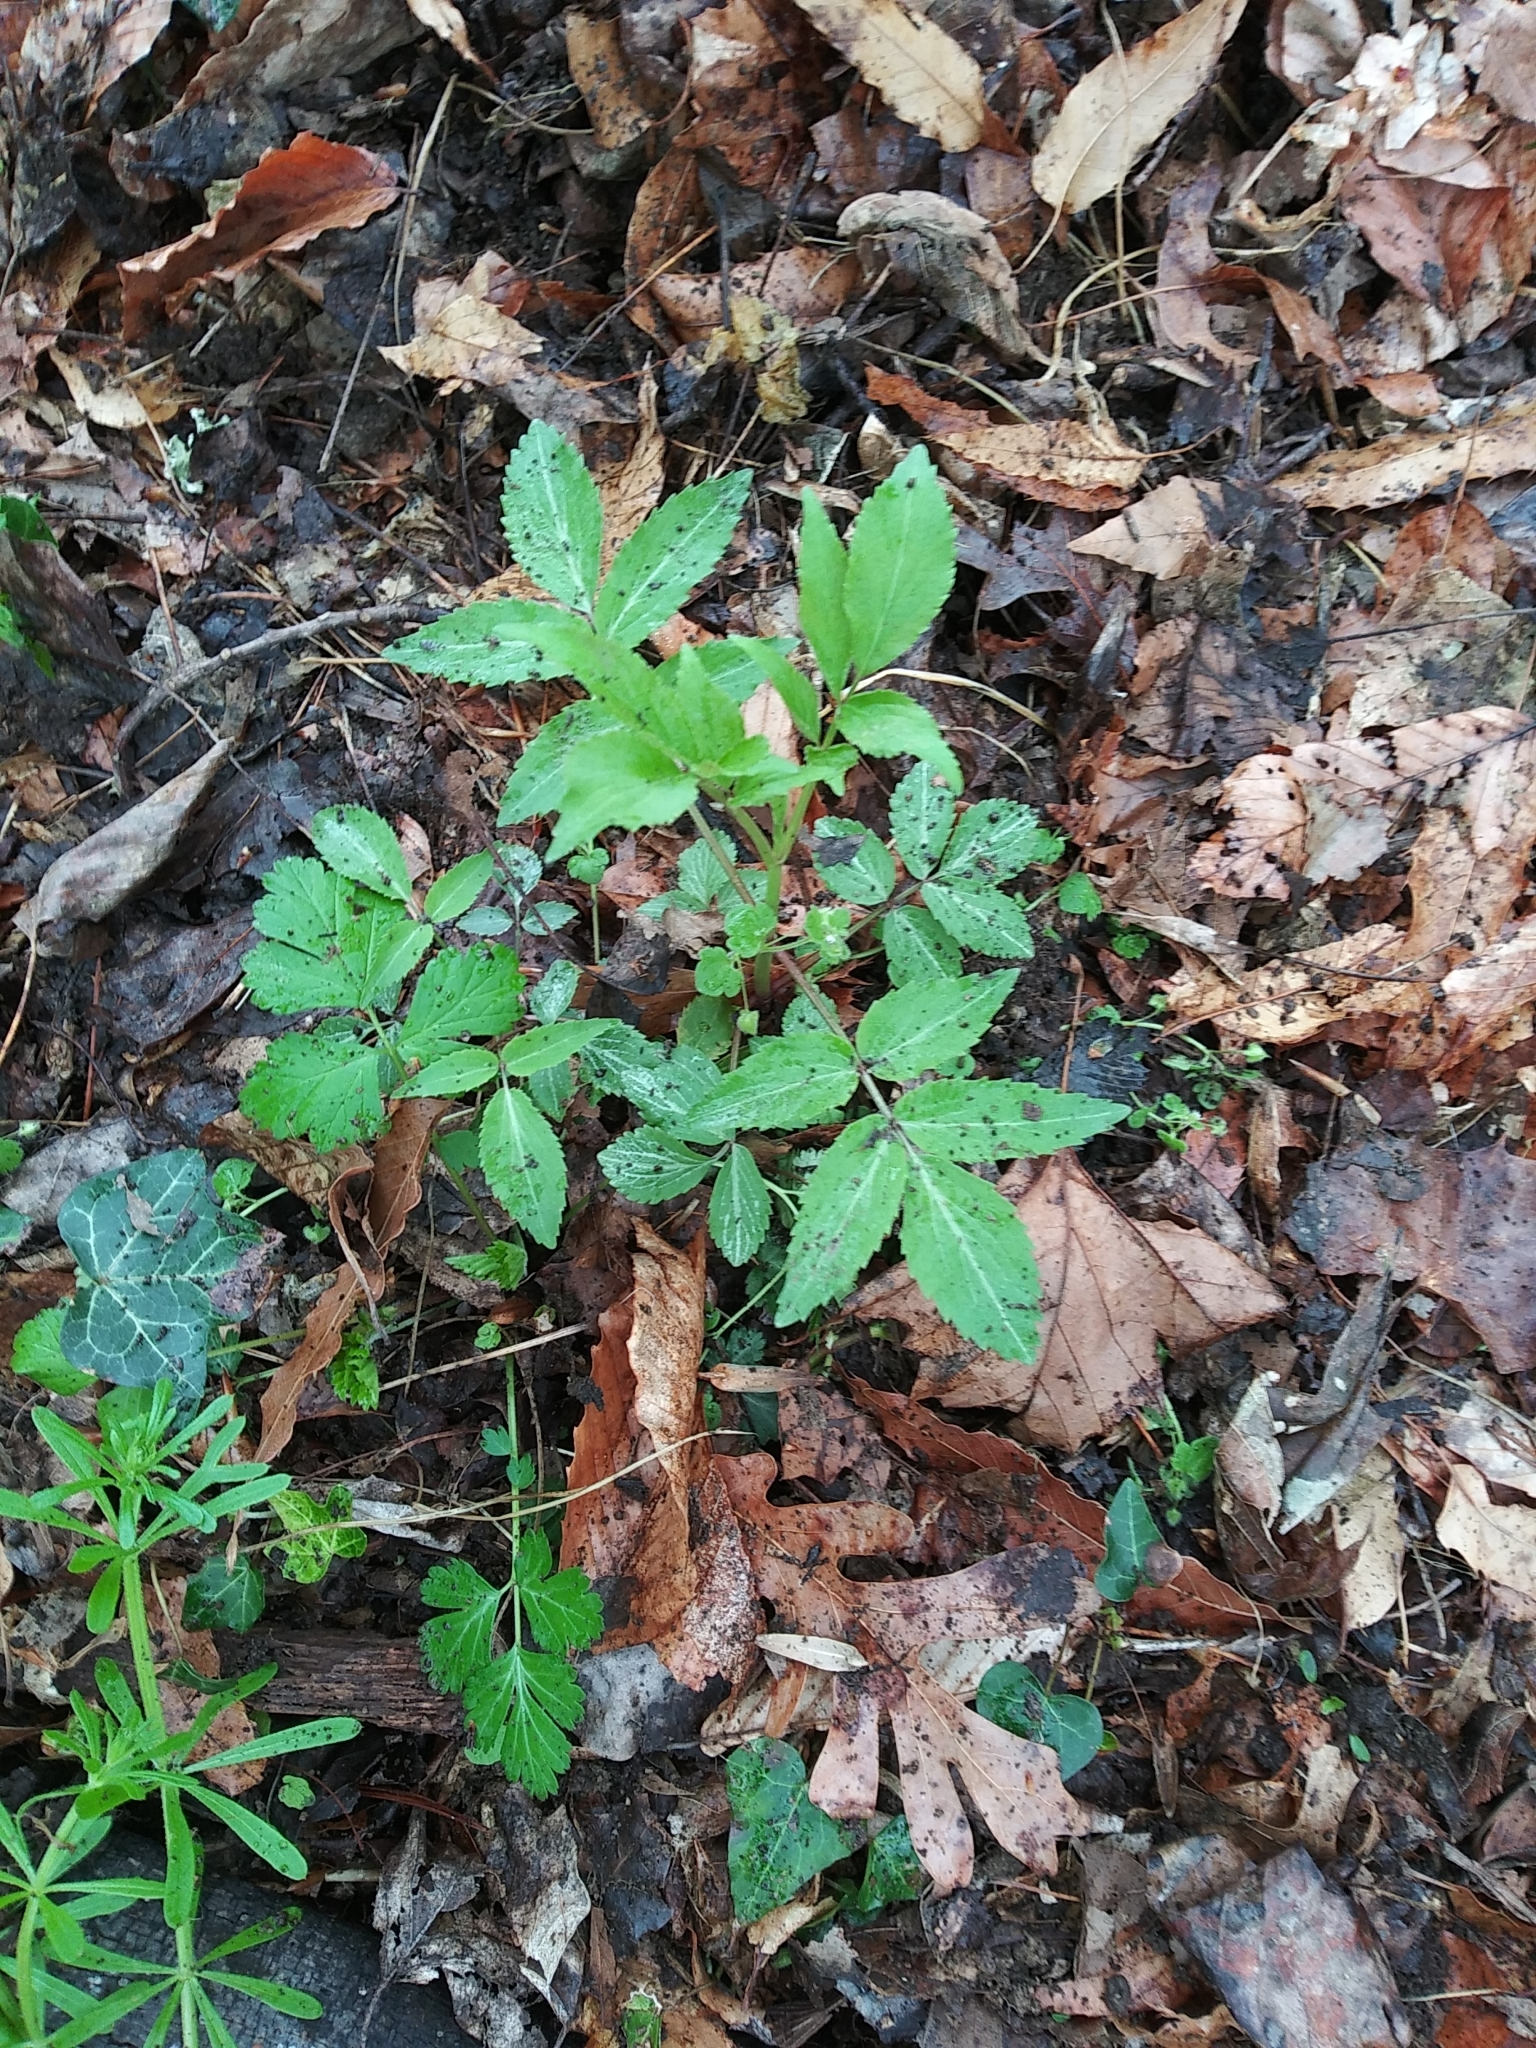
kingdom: Plantae
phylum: Tracheophyta
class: Magnoliopsida
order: Dipsacales
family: Viburnaceae
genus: Sambucus
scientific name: Sambucus canadensis
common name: American elder
